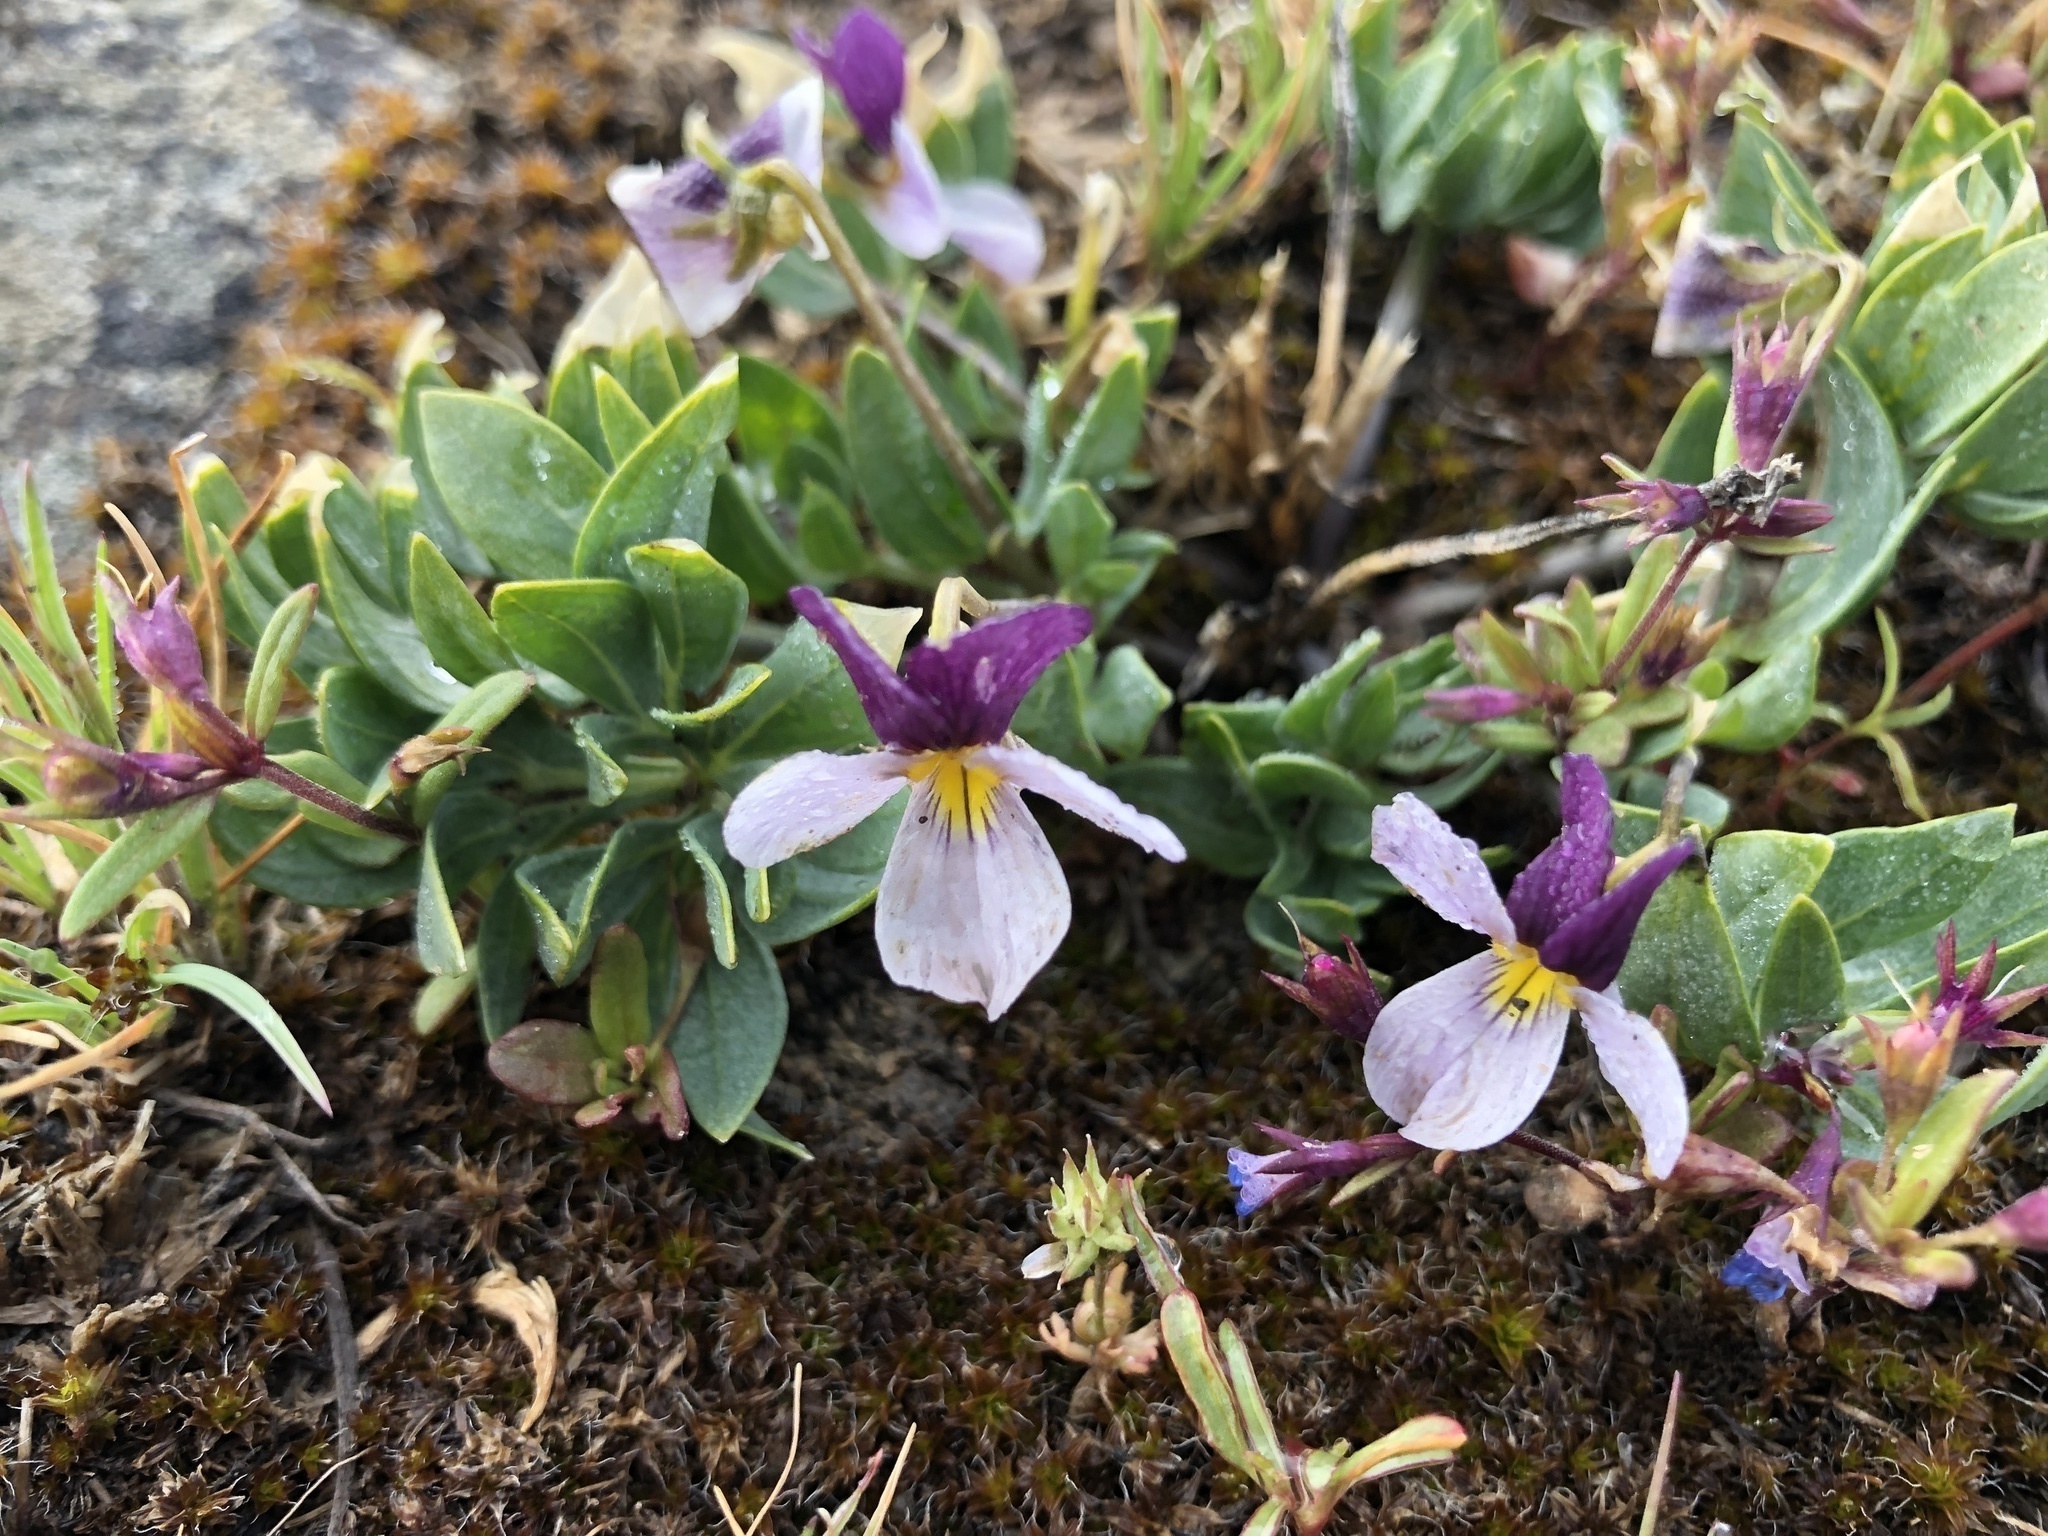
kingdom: Plantae
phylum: Tracheophyta
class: Magnoliopsida
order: Malpighiales
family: Violaceae
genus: Viola
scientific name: Viola trinervata
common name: Sagebrush violet
